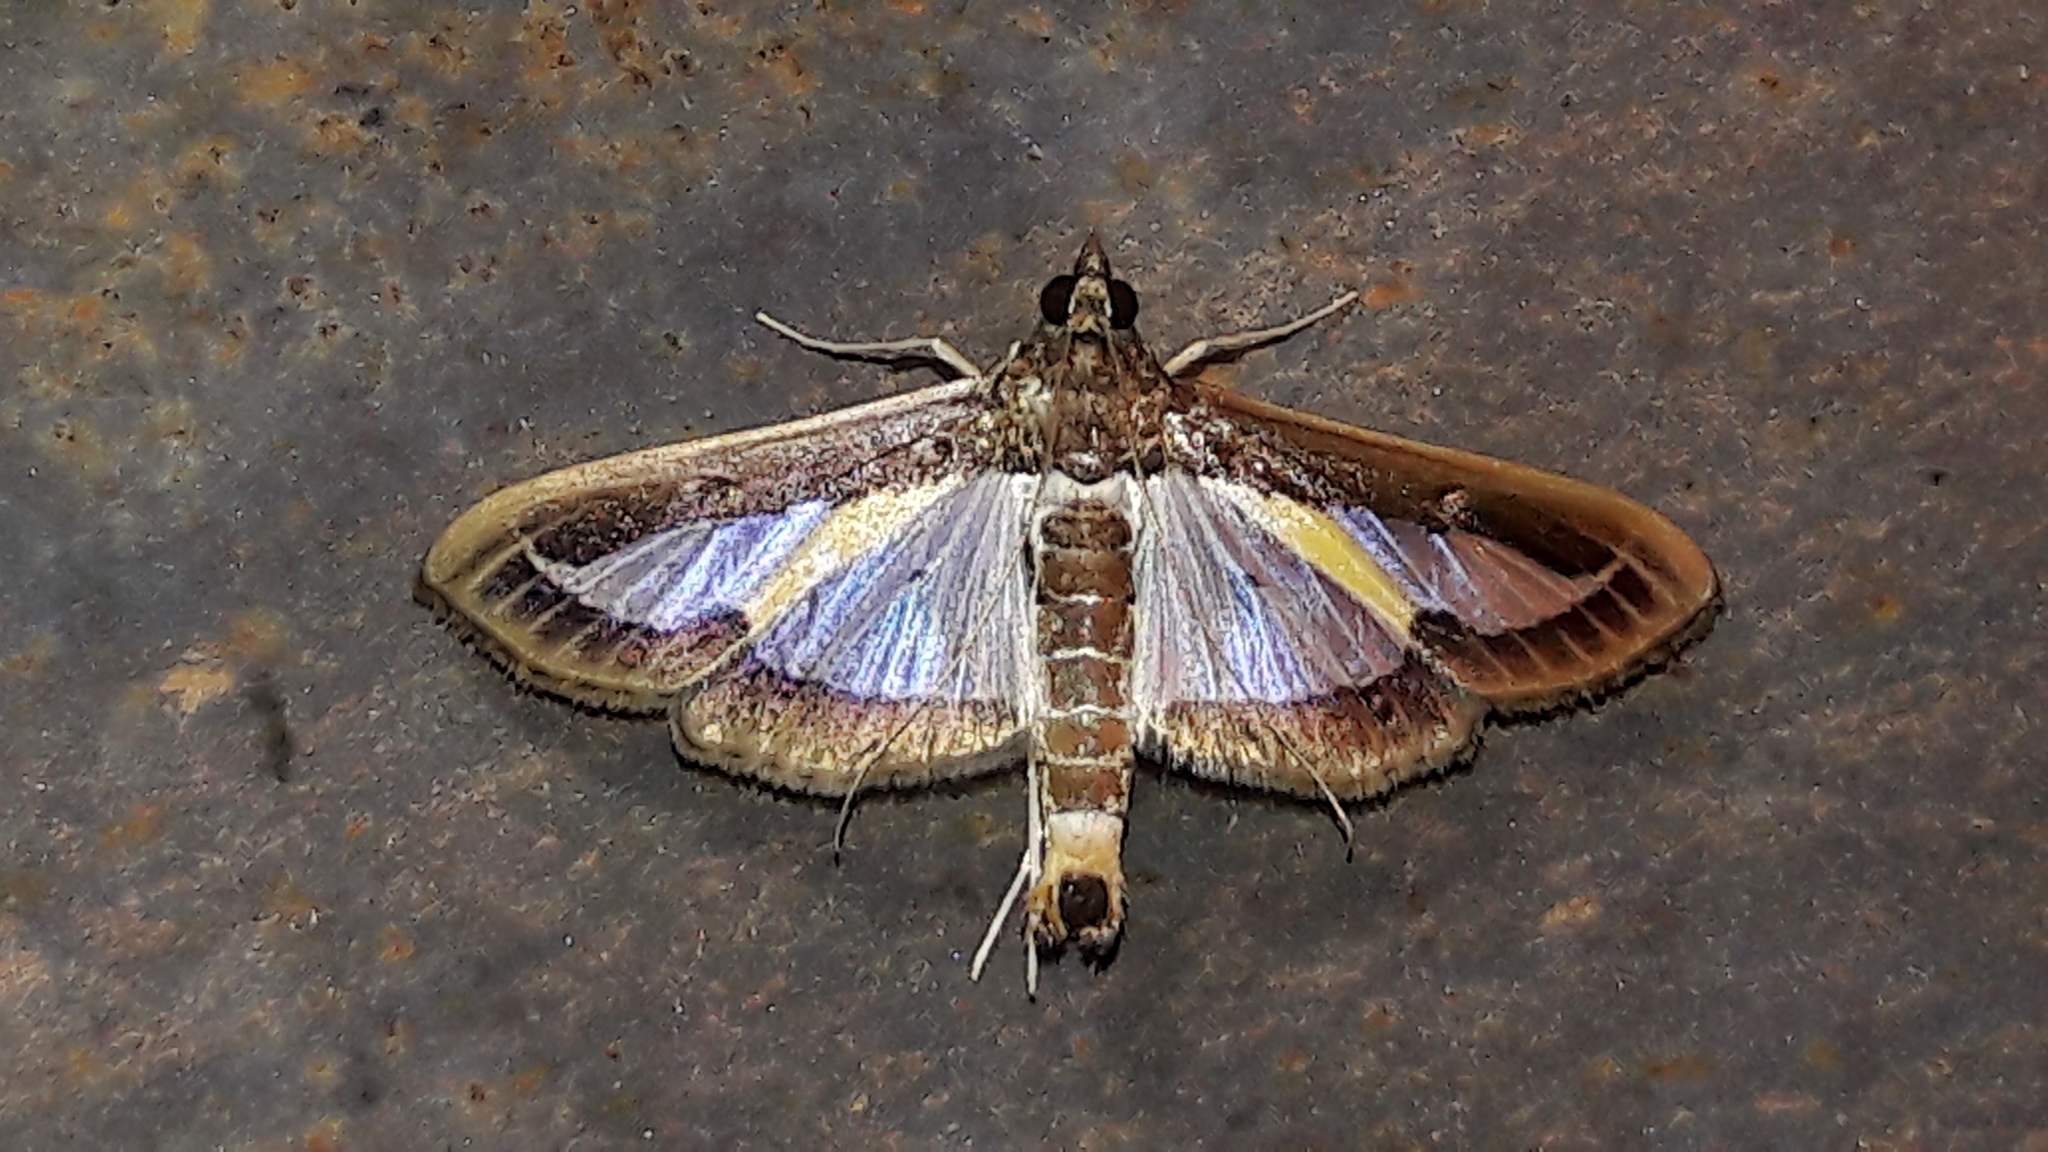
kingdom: Animalia
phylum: Arthropoda
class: Insecta
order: Lepidoptera
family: Crambidae
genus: Diaphania
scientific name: Diaphania elegans
